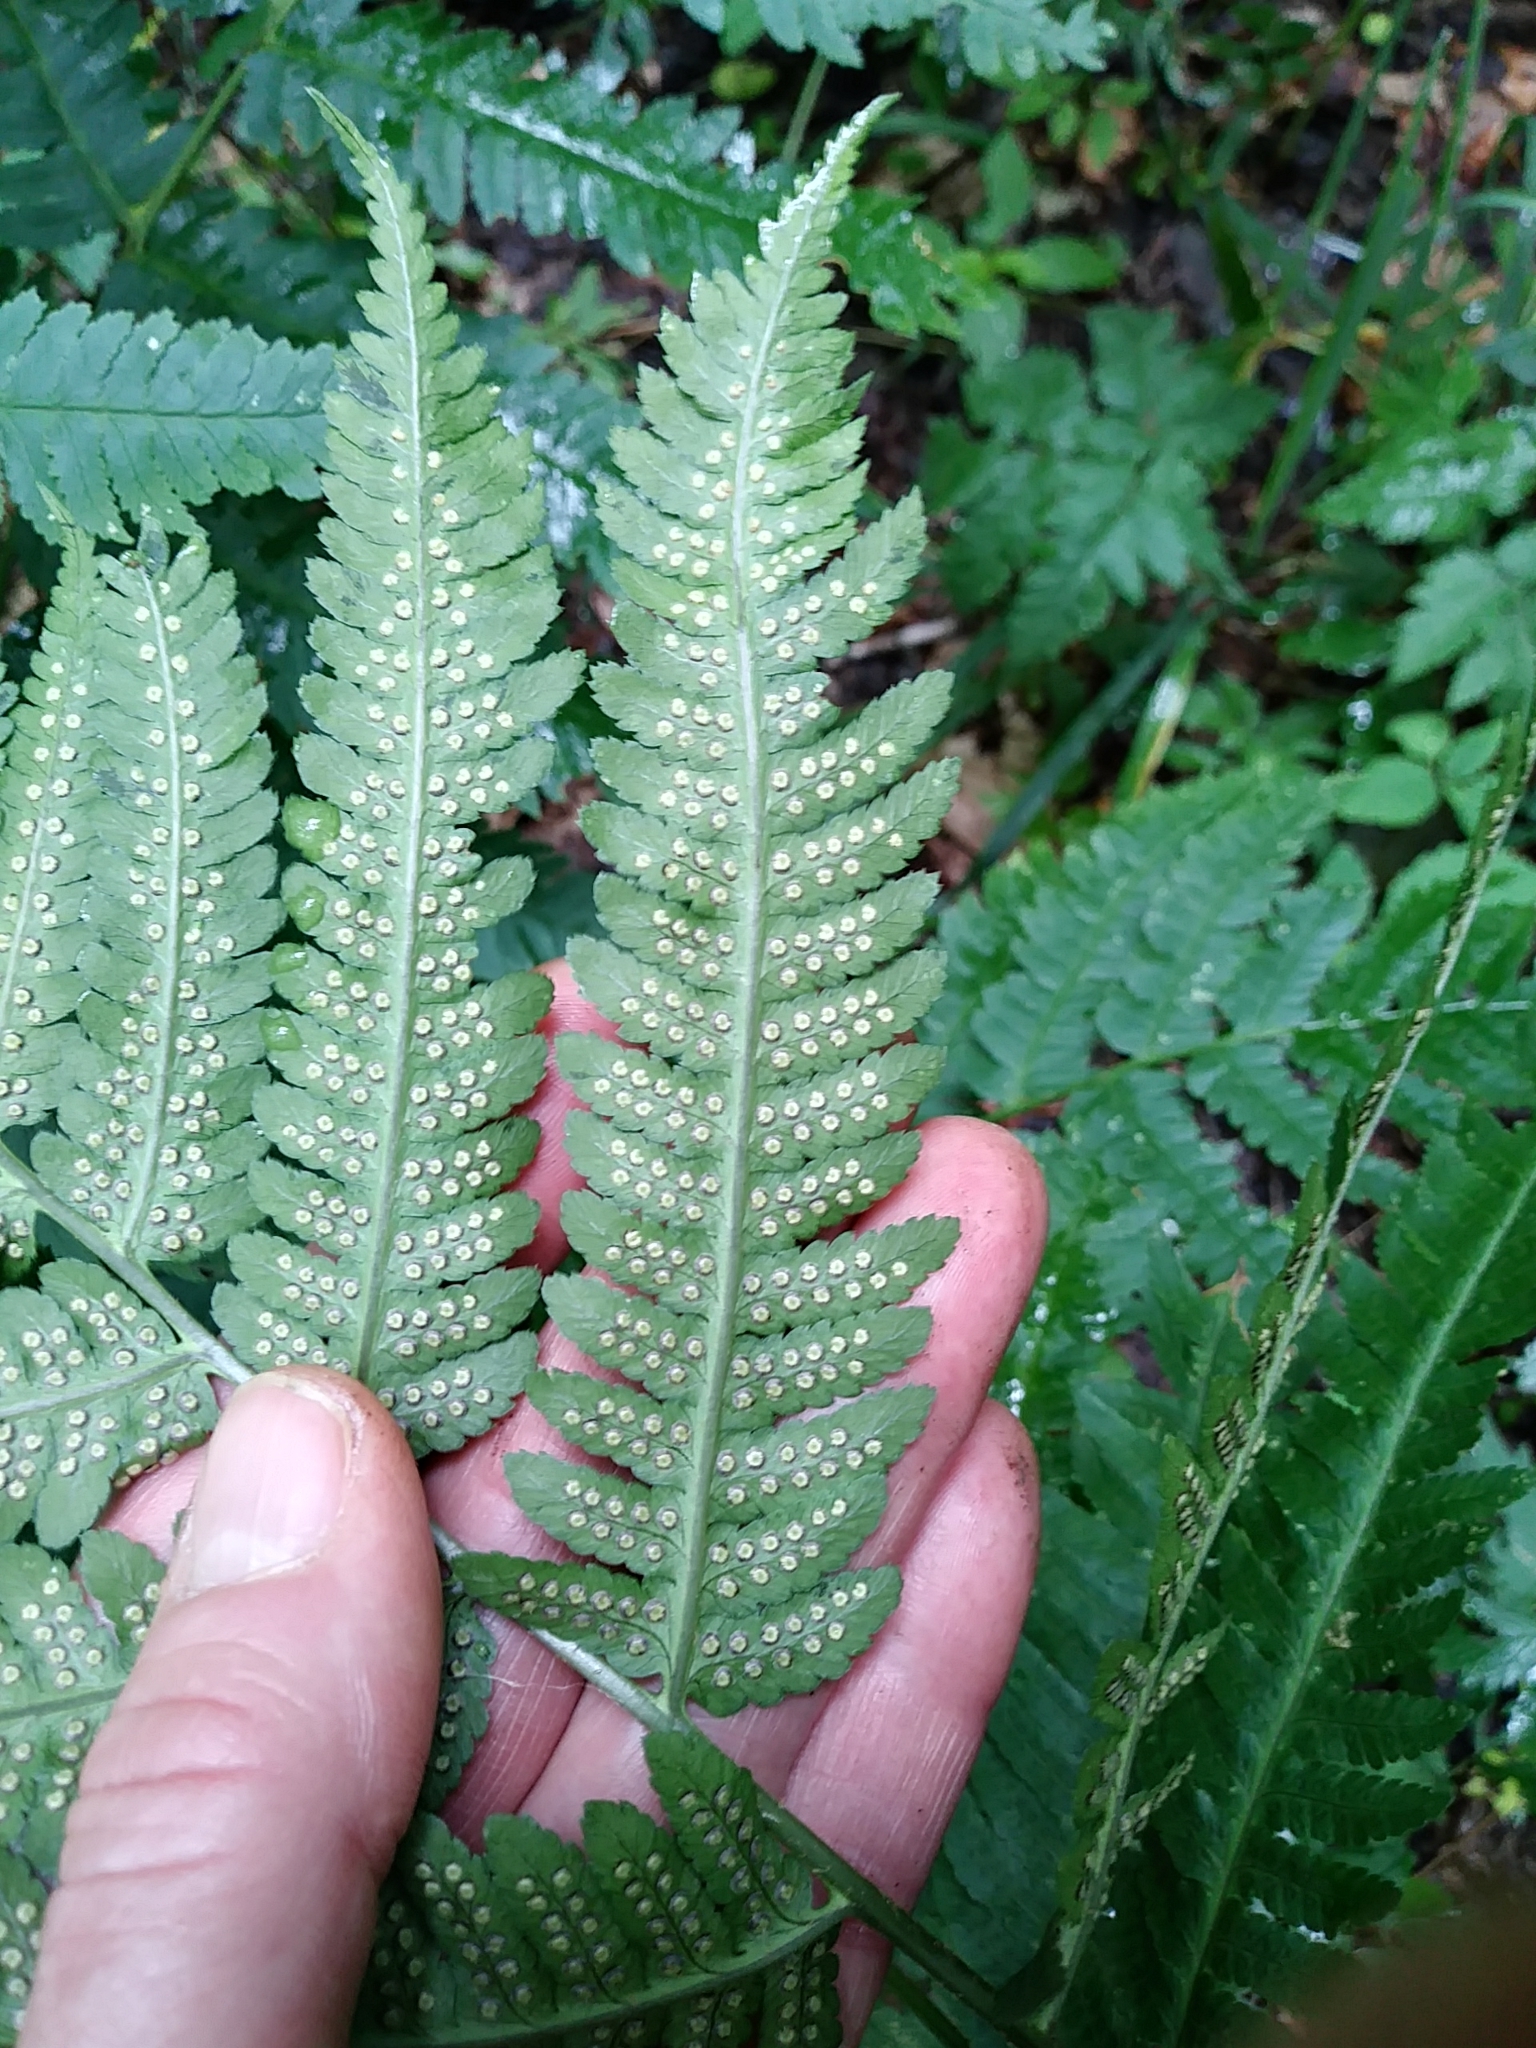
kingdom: Plantae
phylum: Tracheophyta
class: Polypodiopsida
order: Polypodiales
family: Dryopteridaceae
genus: Dryopteris
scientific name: Dryopteris goldieana
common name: Goldie's fern
